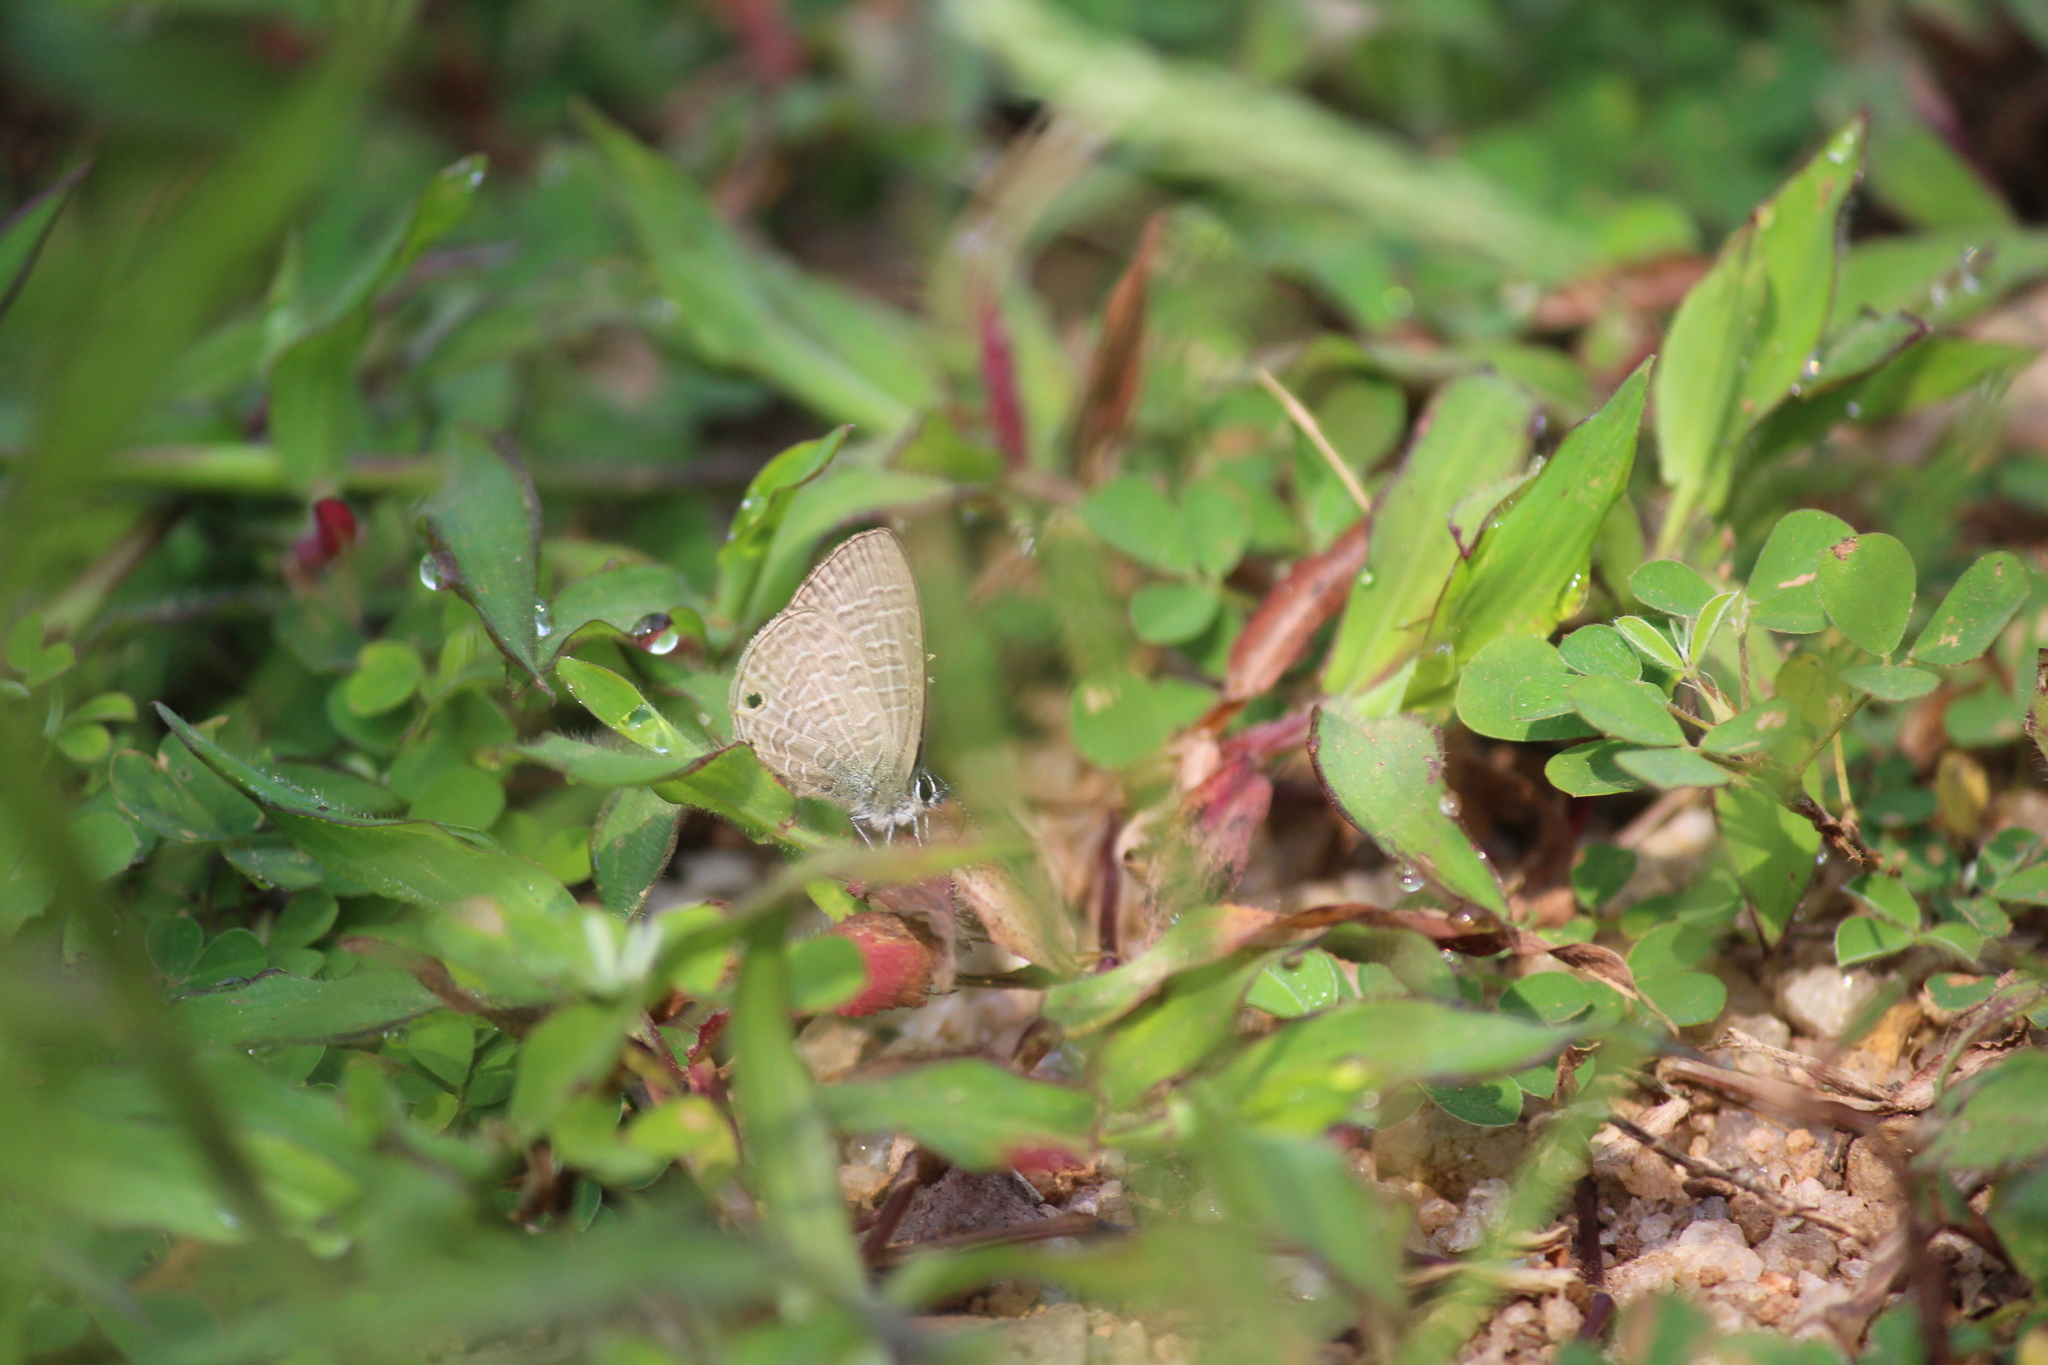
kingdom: Animalia
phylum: Arthropoda
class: Insecta
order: Lepidoptera
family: Lycaenidae
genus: Jamides
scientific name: Jamides bochus
